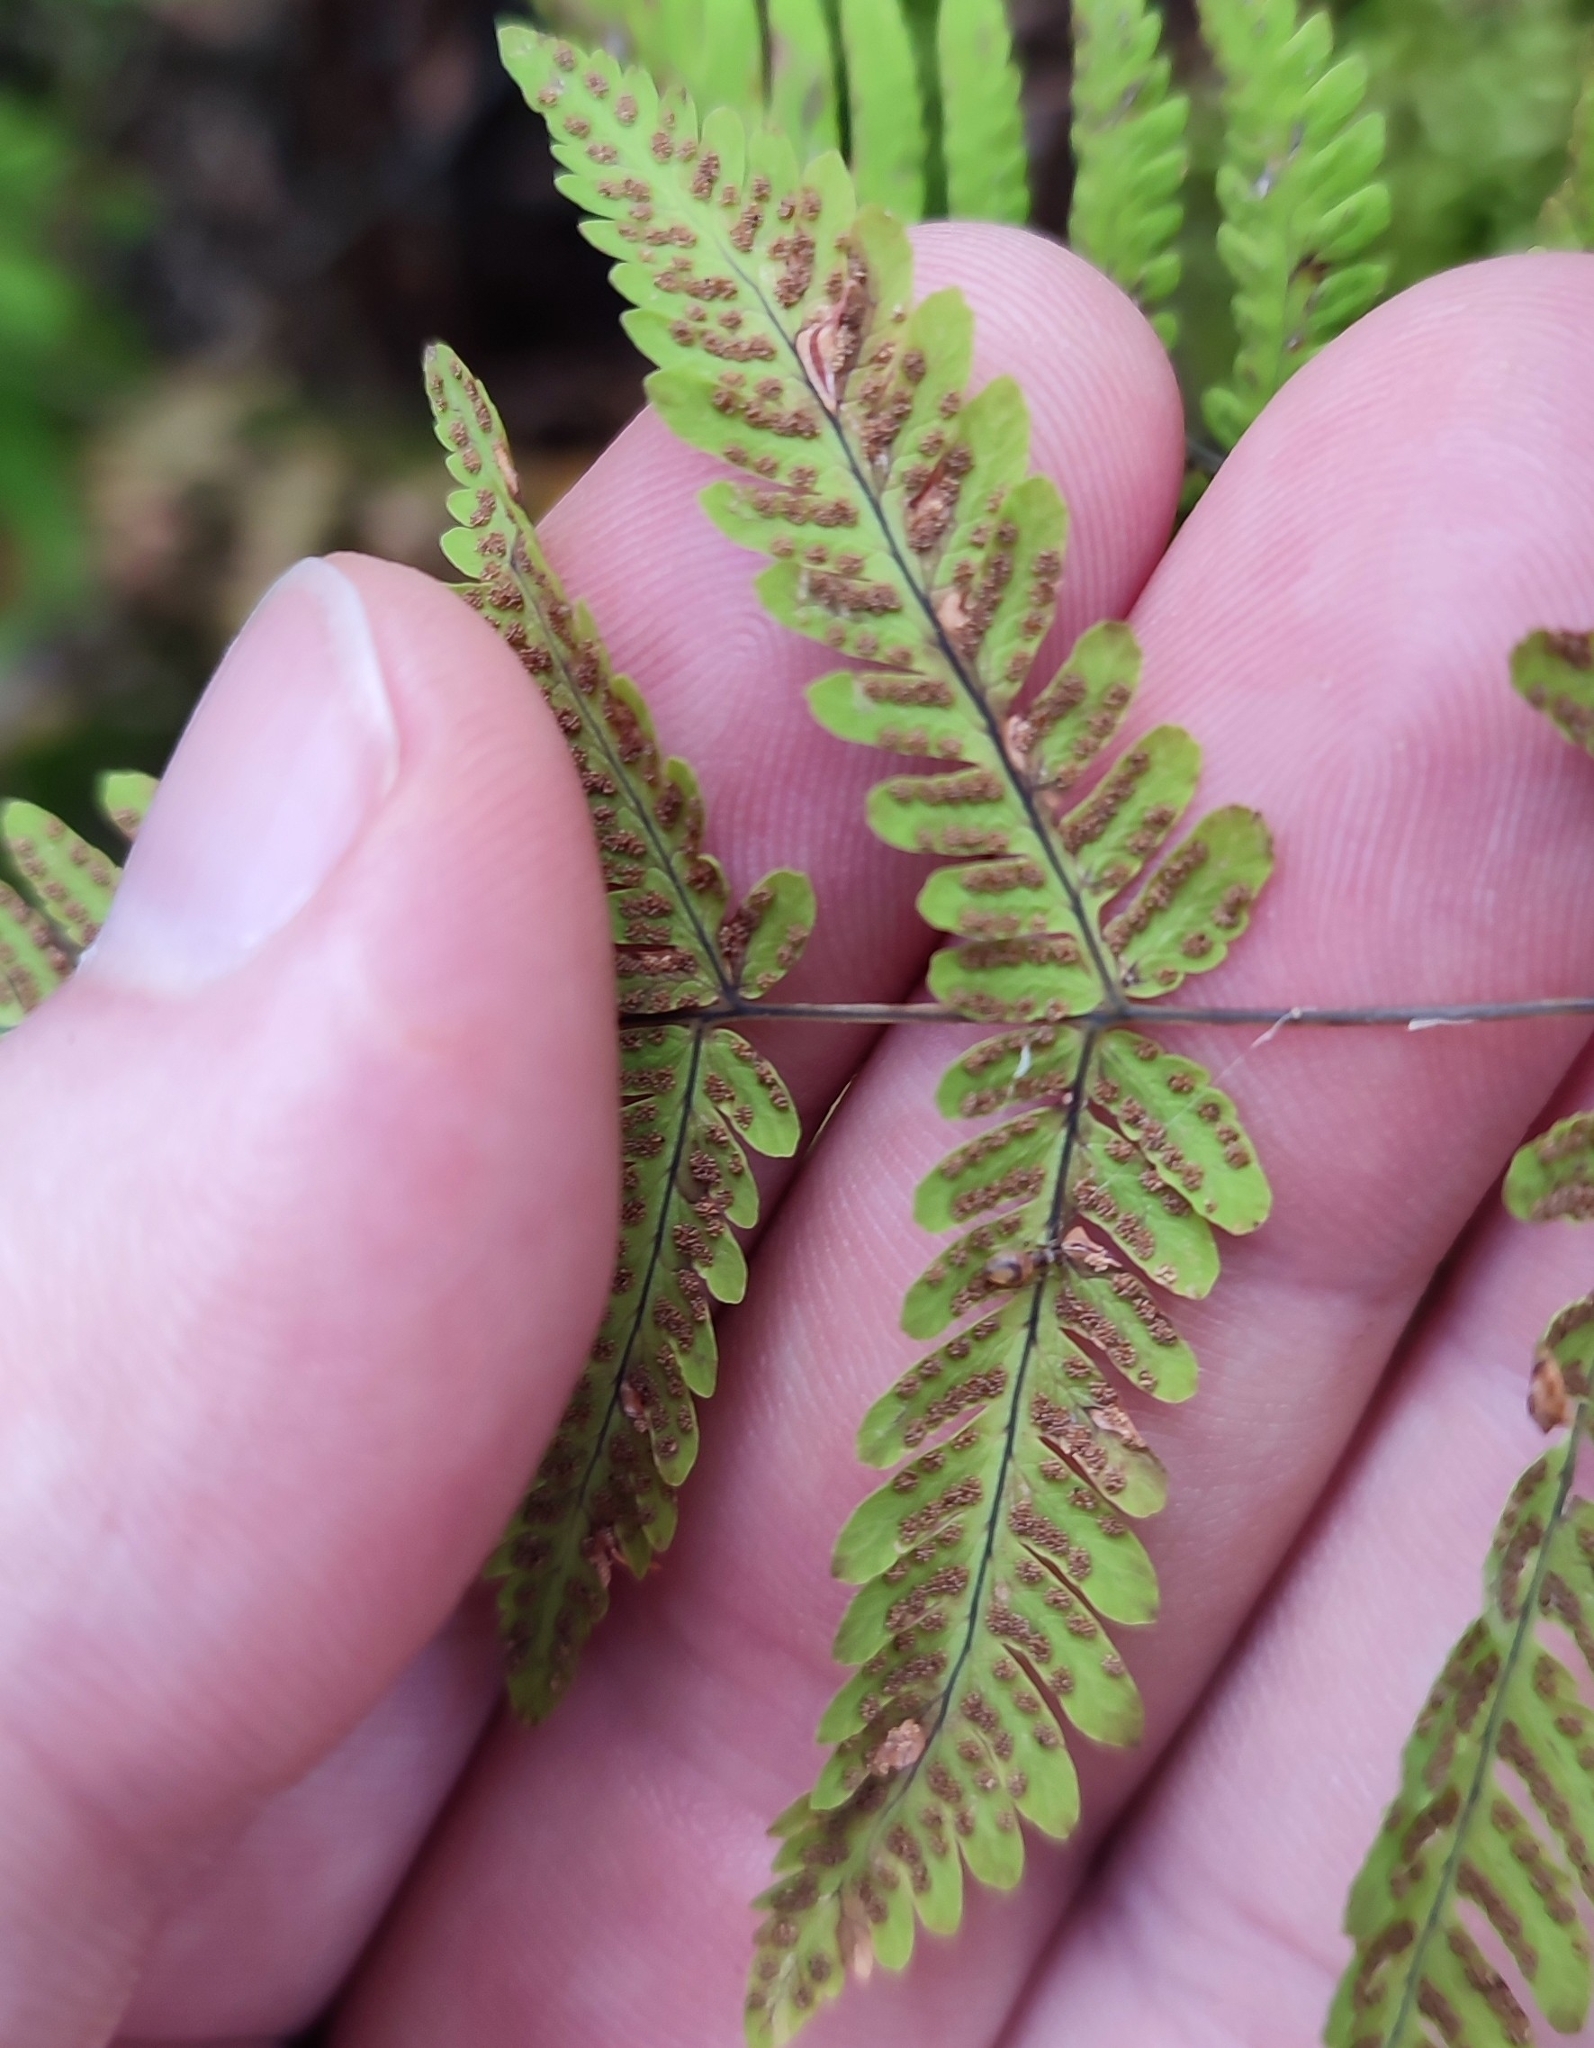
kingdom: Plantae
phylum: Tracheophyta
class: Polypodiopsida
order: Polypodiales
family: Cystopteridaceae
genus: Gymnocarpium
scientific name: Gymnocarpium dryopteris
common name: Oak fern
